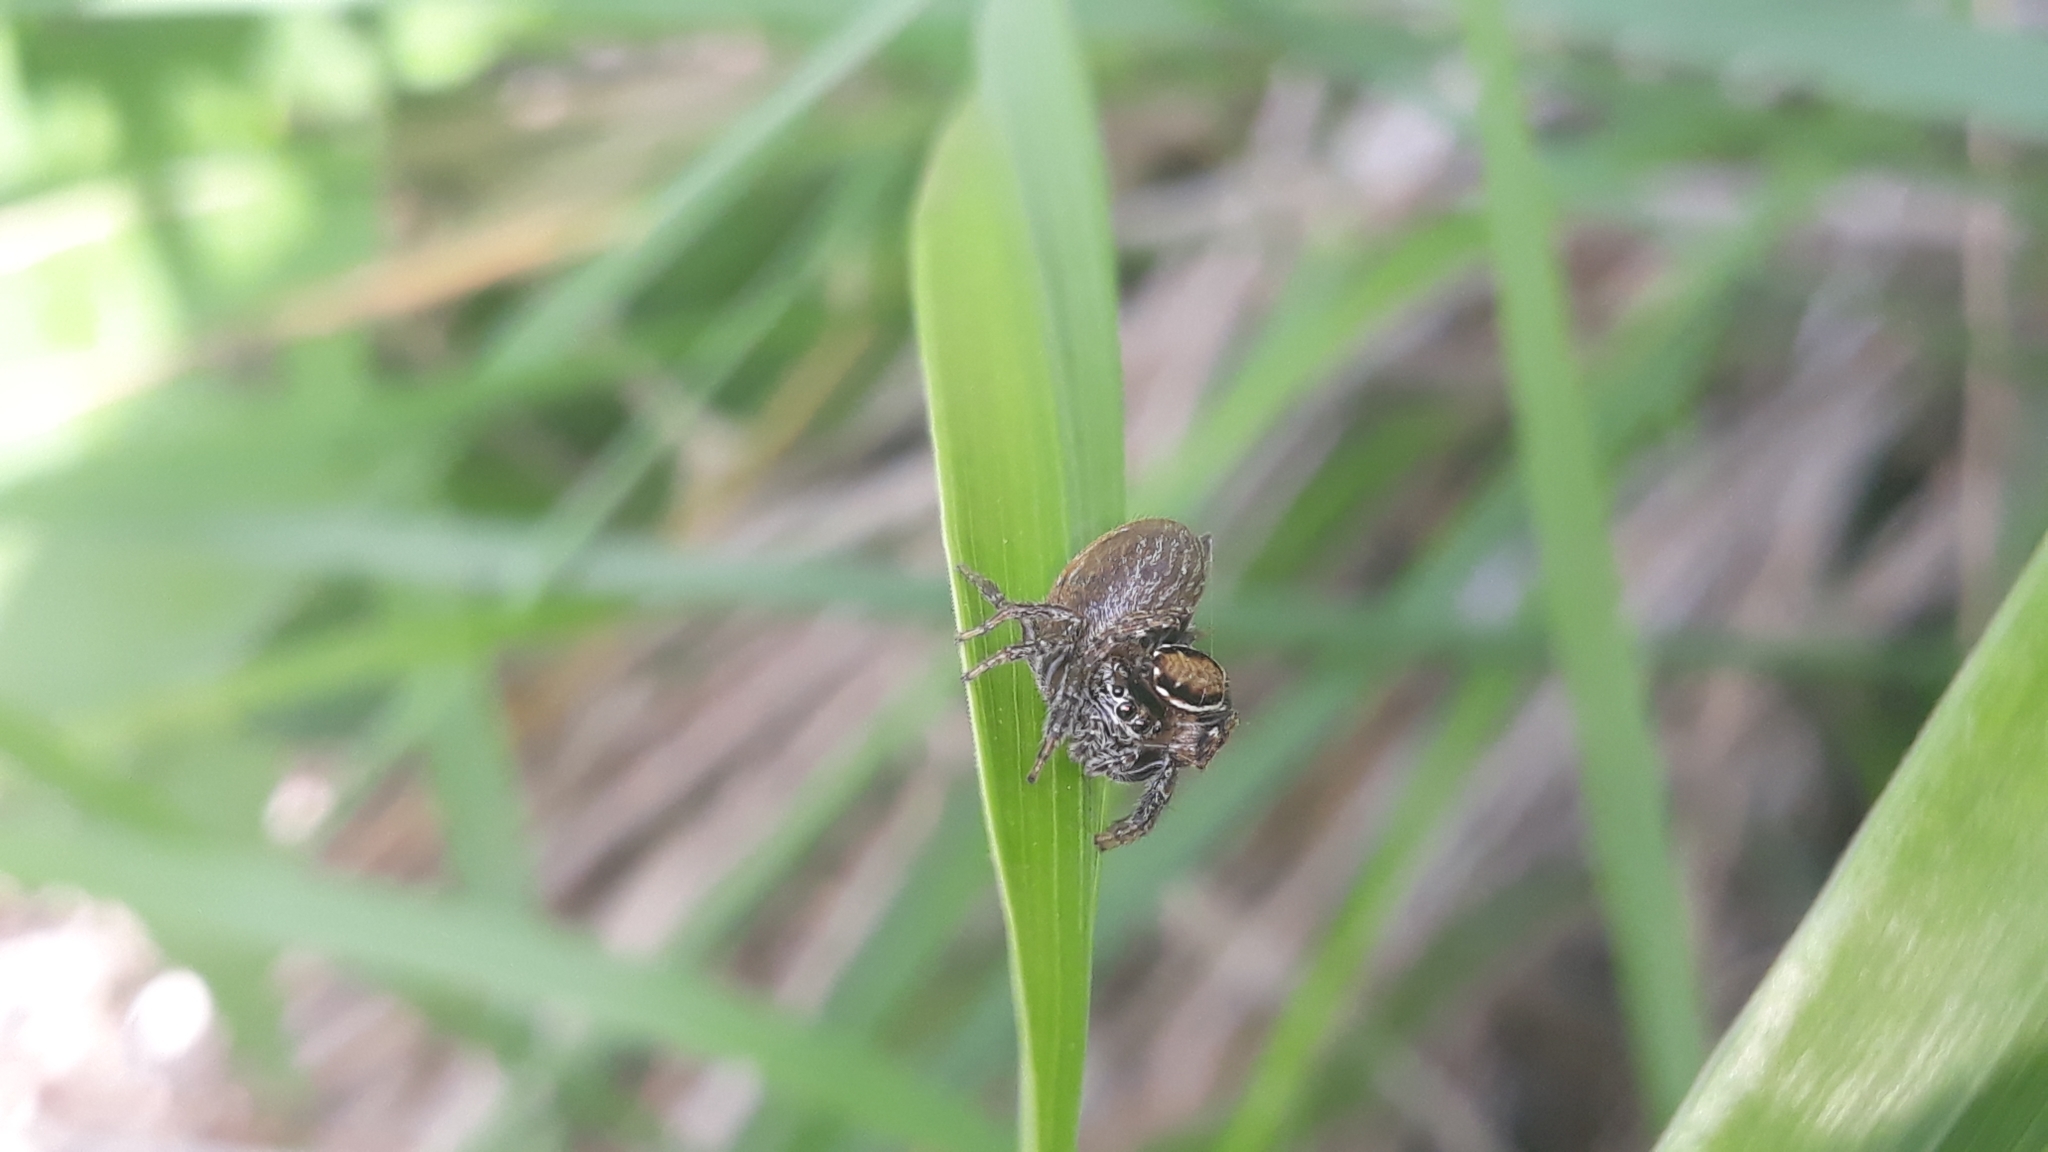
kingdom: Animalia
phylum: Arthropoda
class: Arachnida
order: Araneae
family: Salticidae
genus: Evarcha
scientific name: Evarcha falcata
